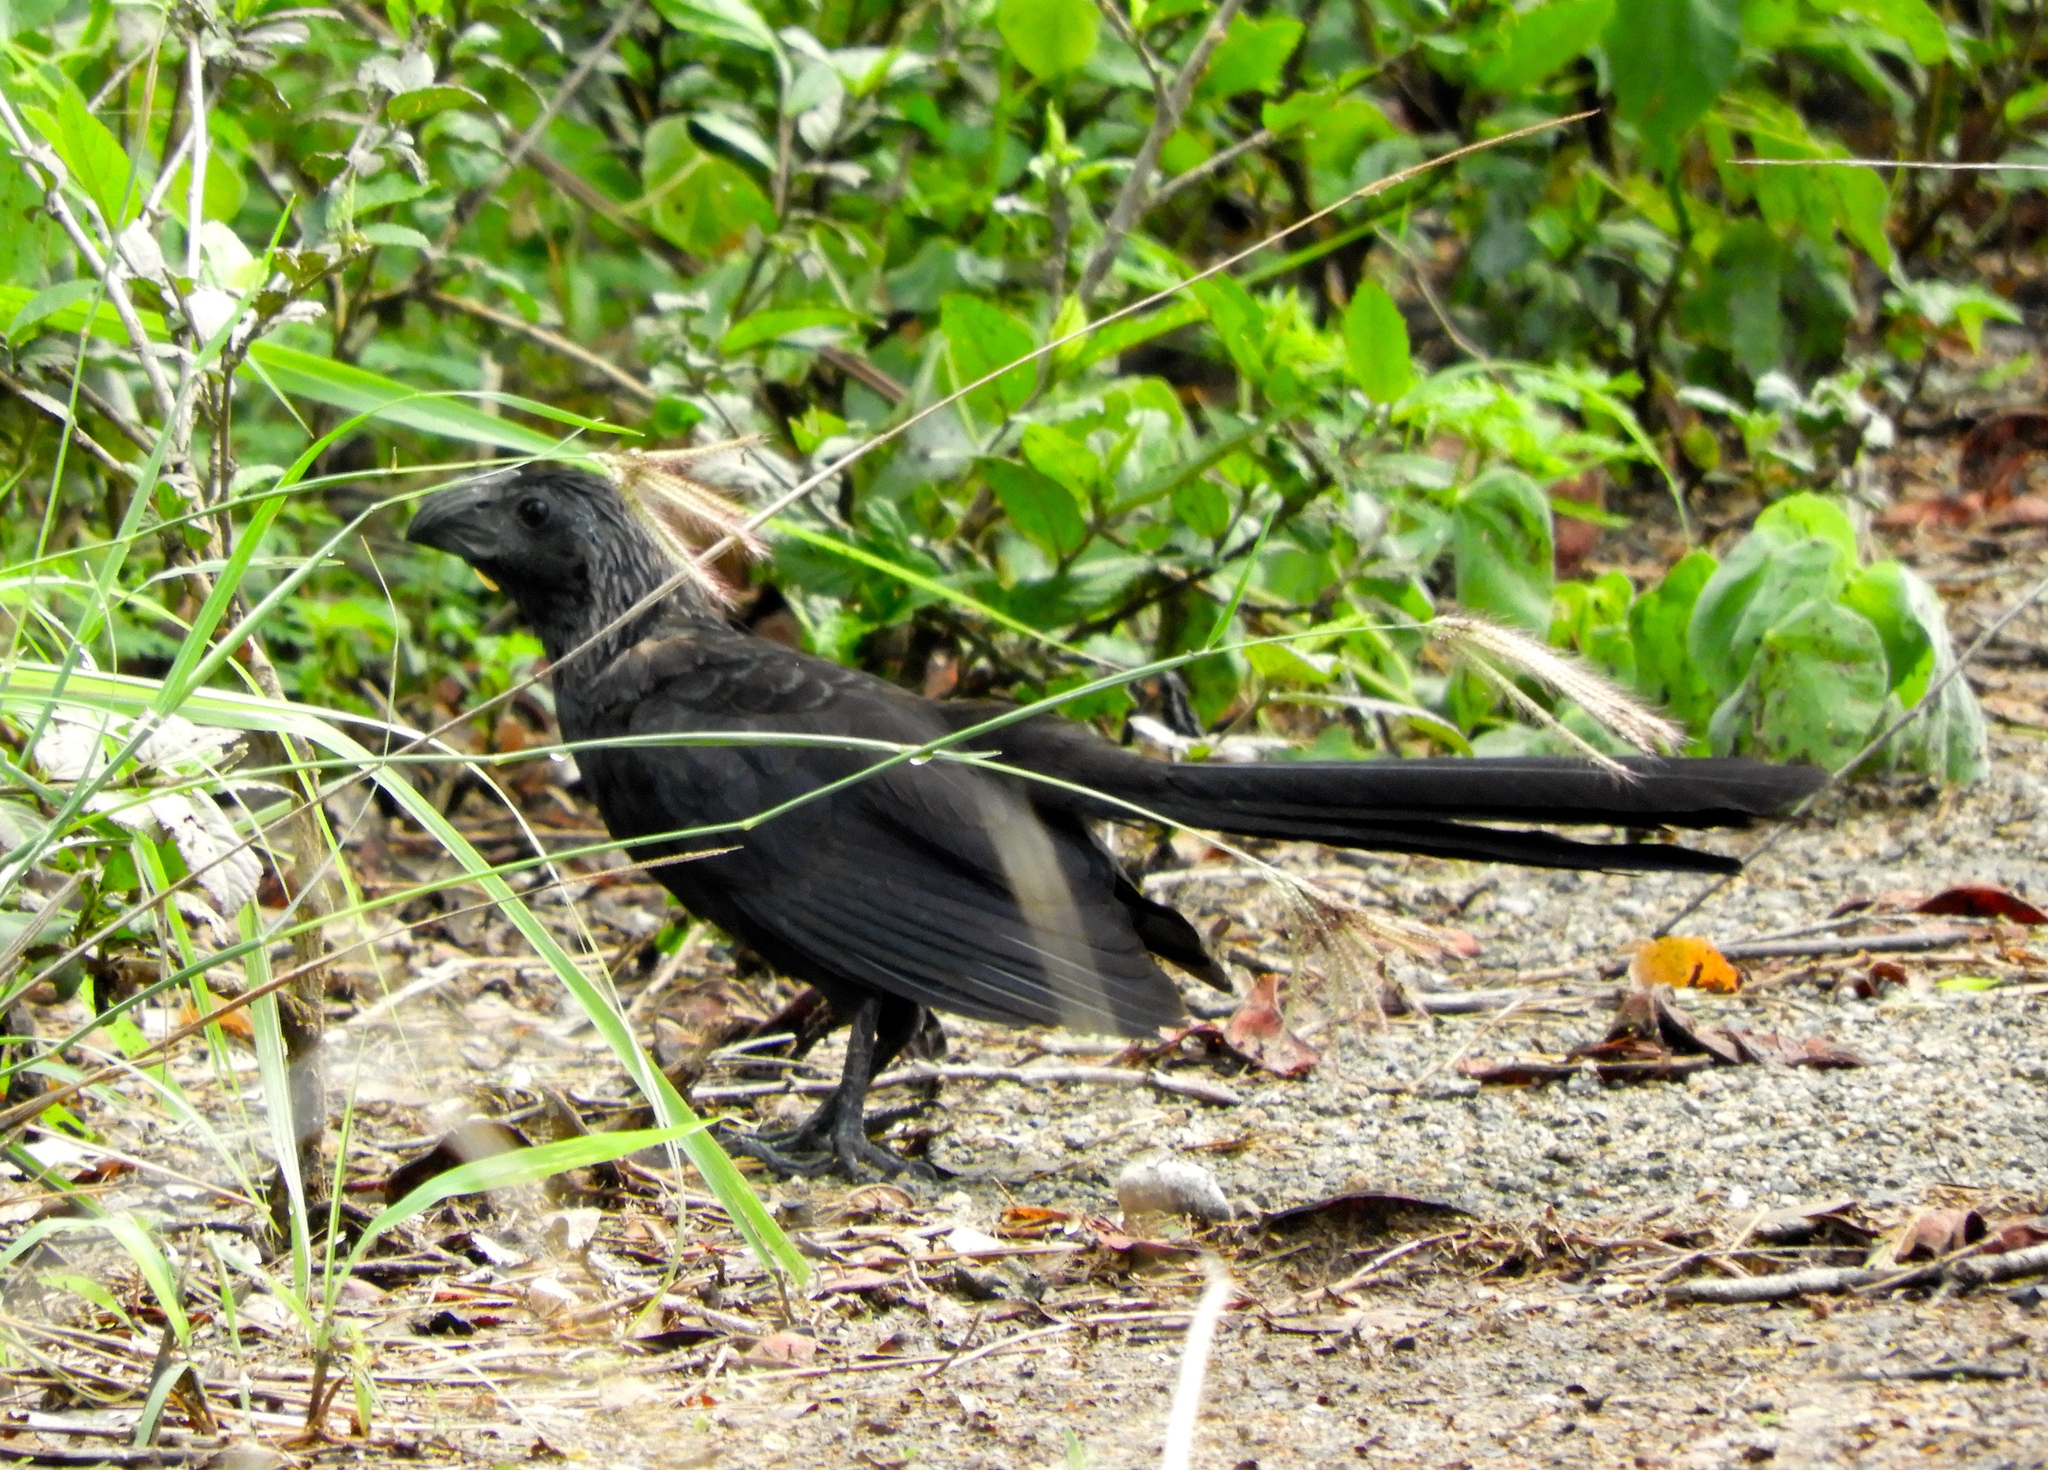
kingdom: Animalia
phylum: Chordata
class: Aves
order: Cuculiformes
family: Cuculidae
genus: Crotophaga
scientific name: Crotophaga sulcirostris
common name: Groove-billed ani
